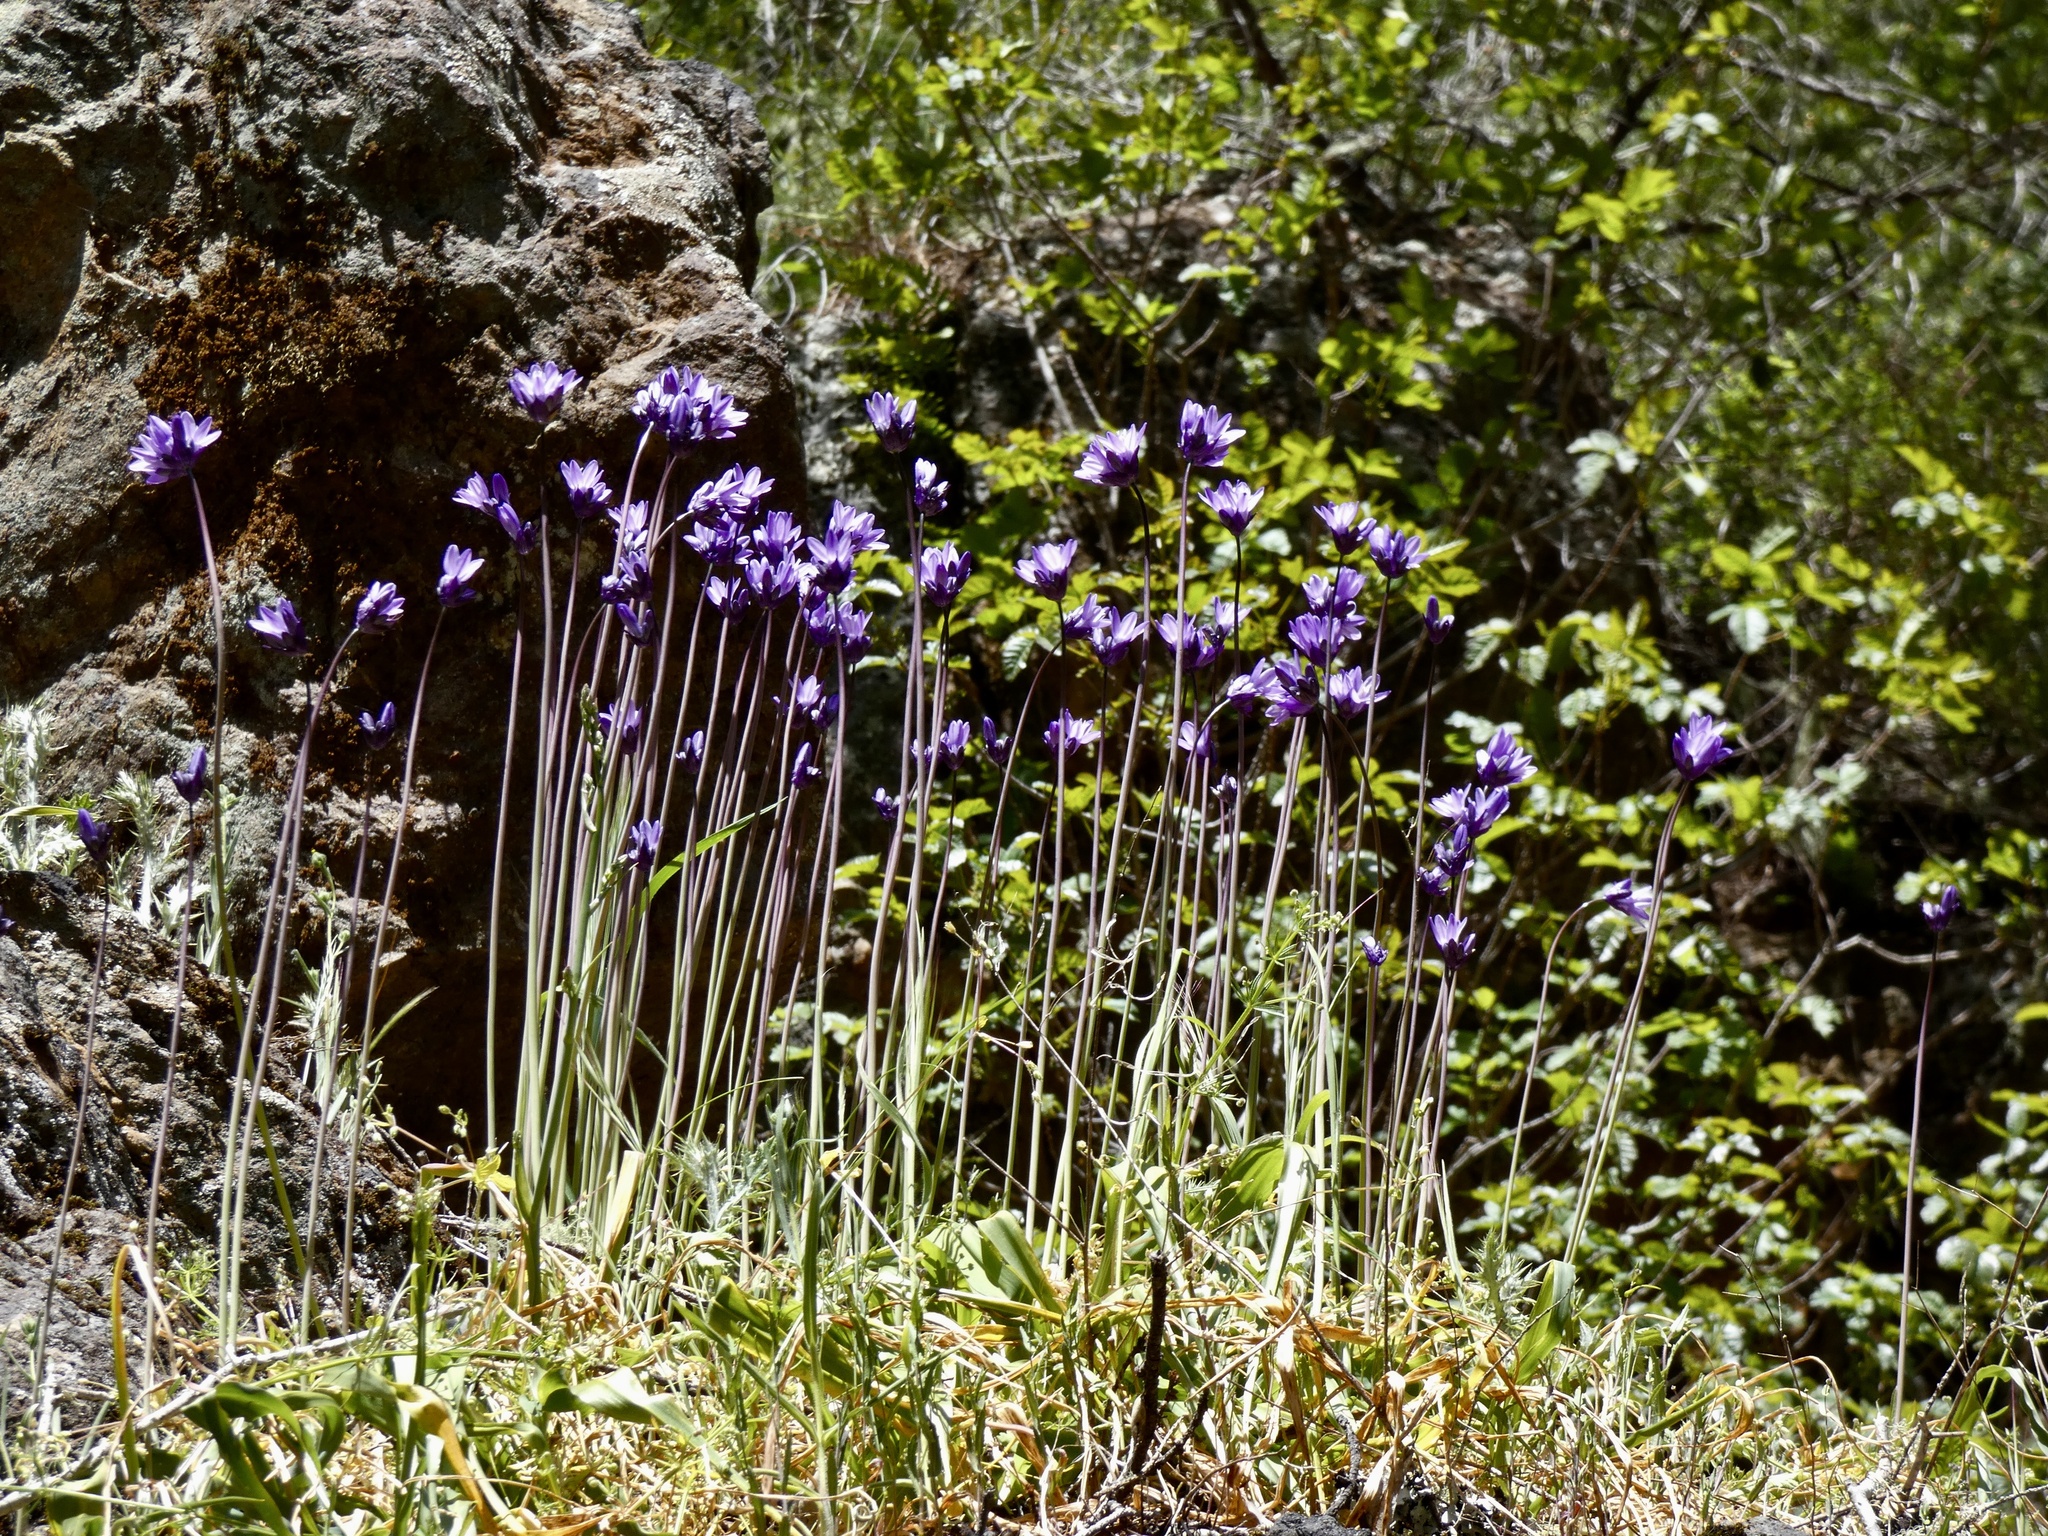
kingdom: Plantae
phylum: Tracheophyta
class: Liliopsida
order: Asparagales
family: Asparagaceae
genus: Dipterostemon
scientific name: Dipterostemon capitatus
